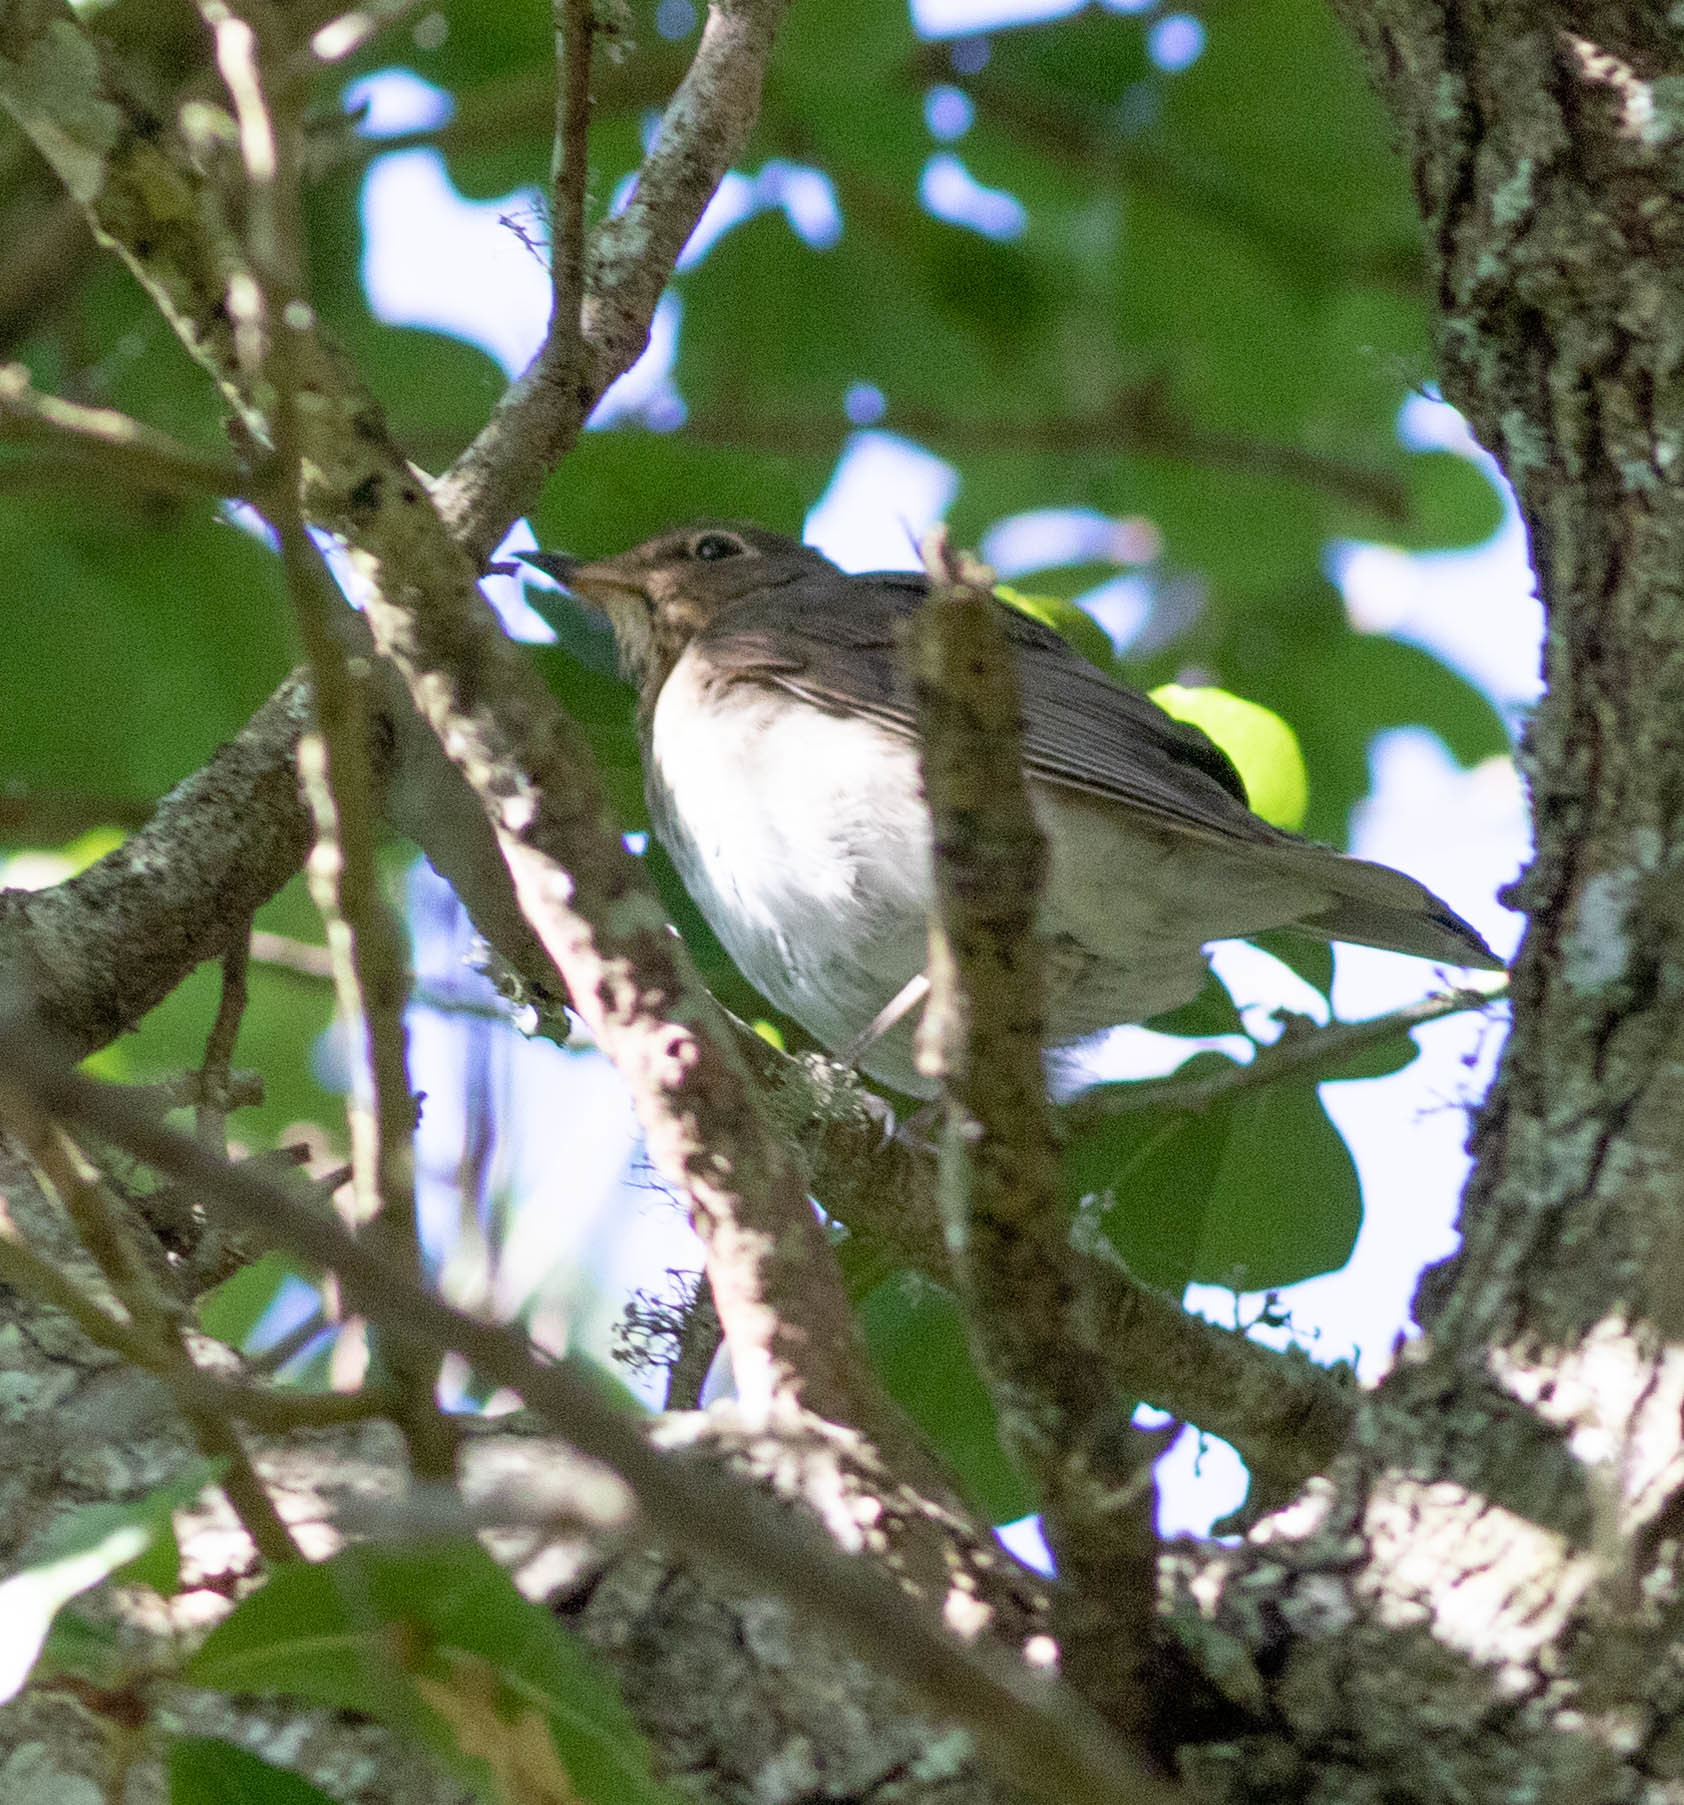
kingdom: Animalia
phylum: Chordata
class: Aves
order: Passeriformes
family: Turdidae
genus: Catharus
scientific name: Catharus ustulatus
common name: Swainson's thrush
